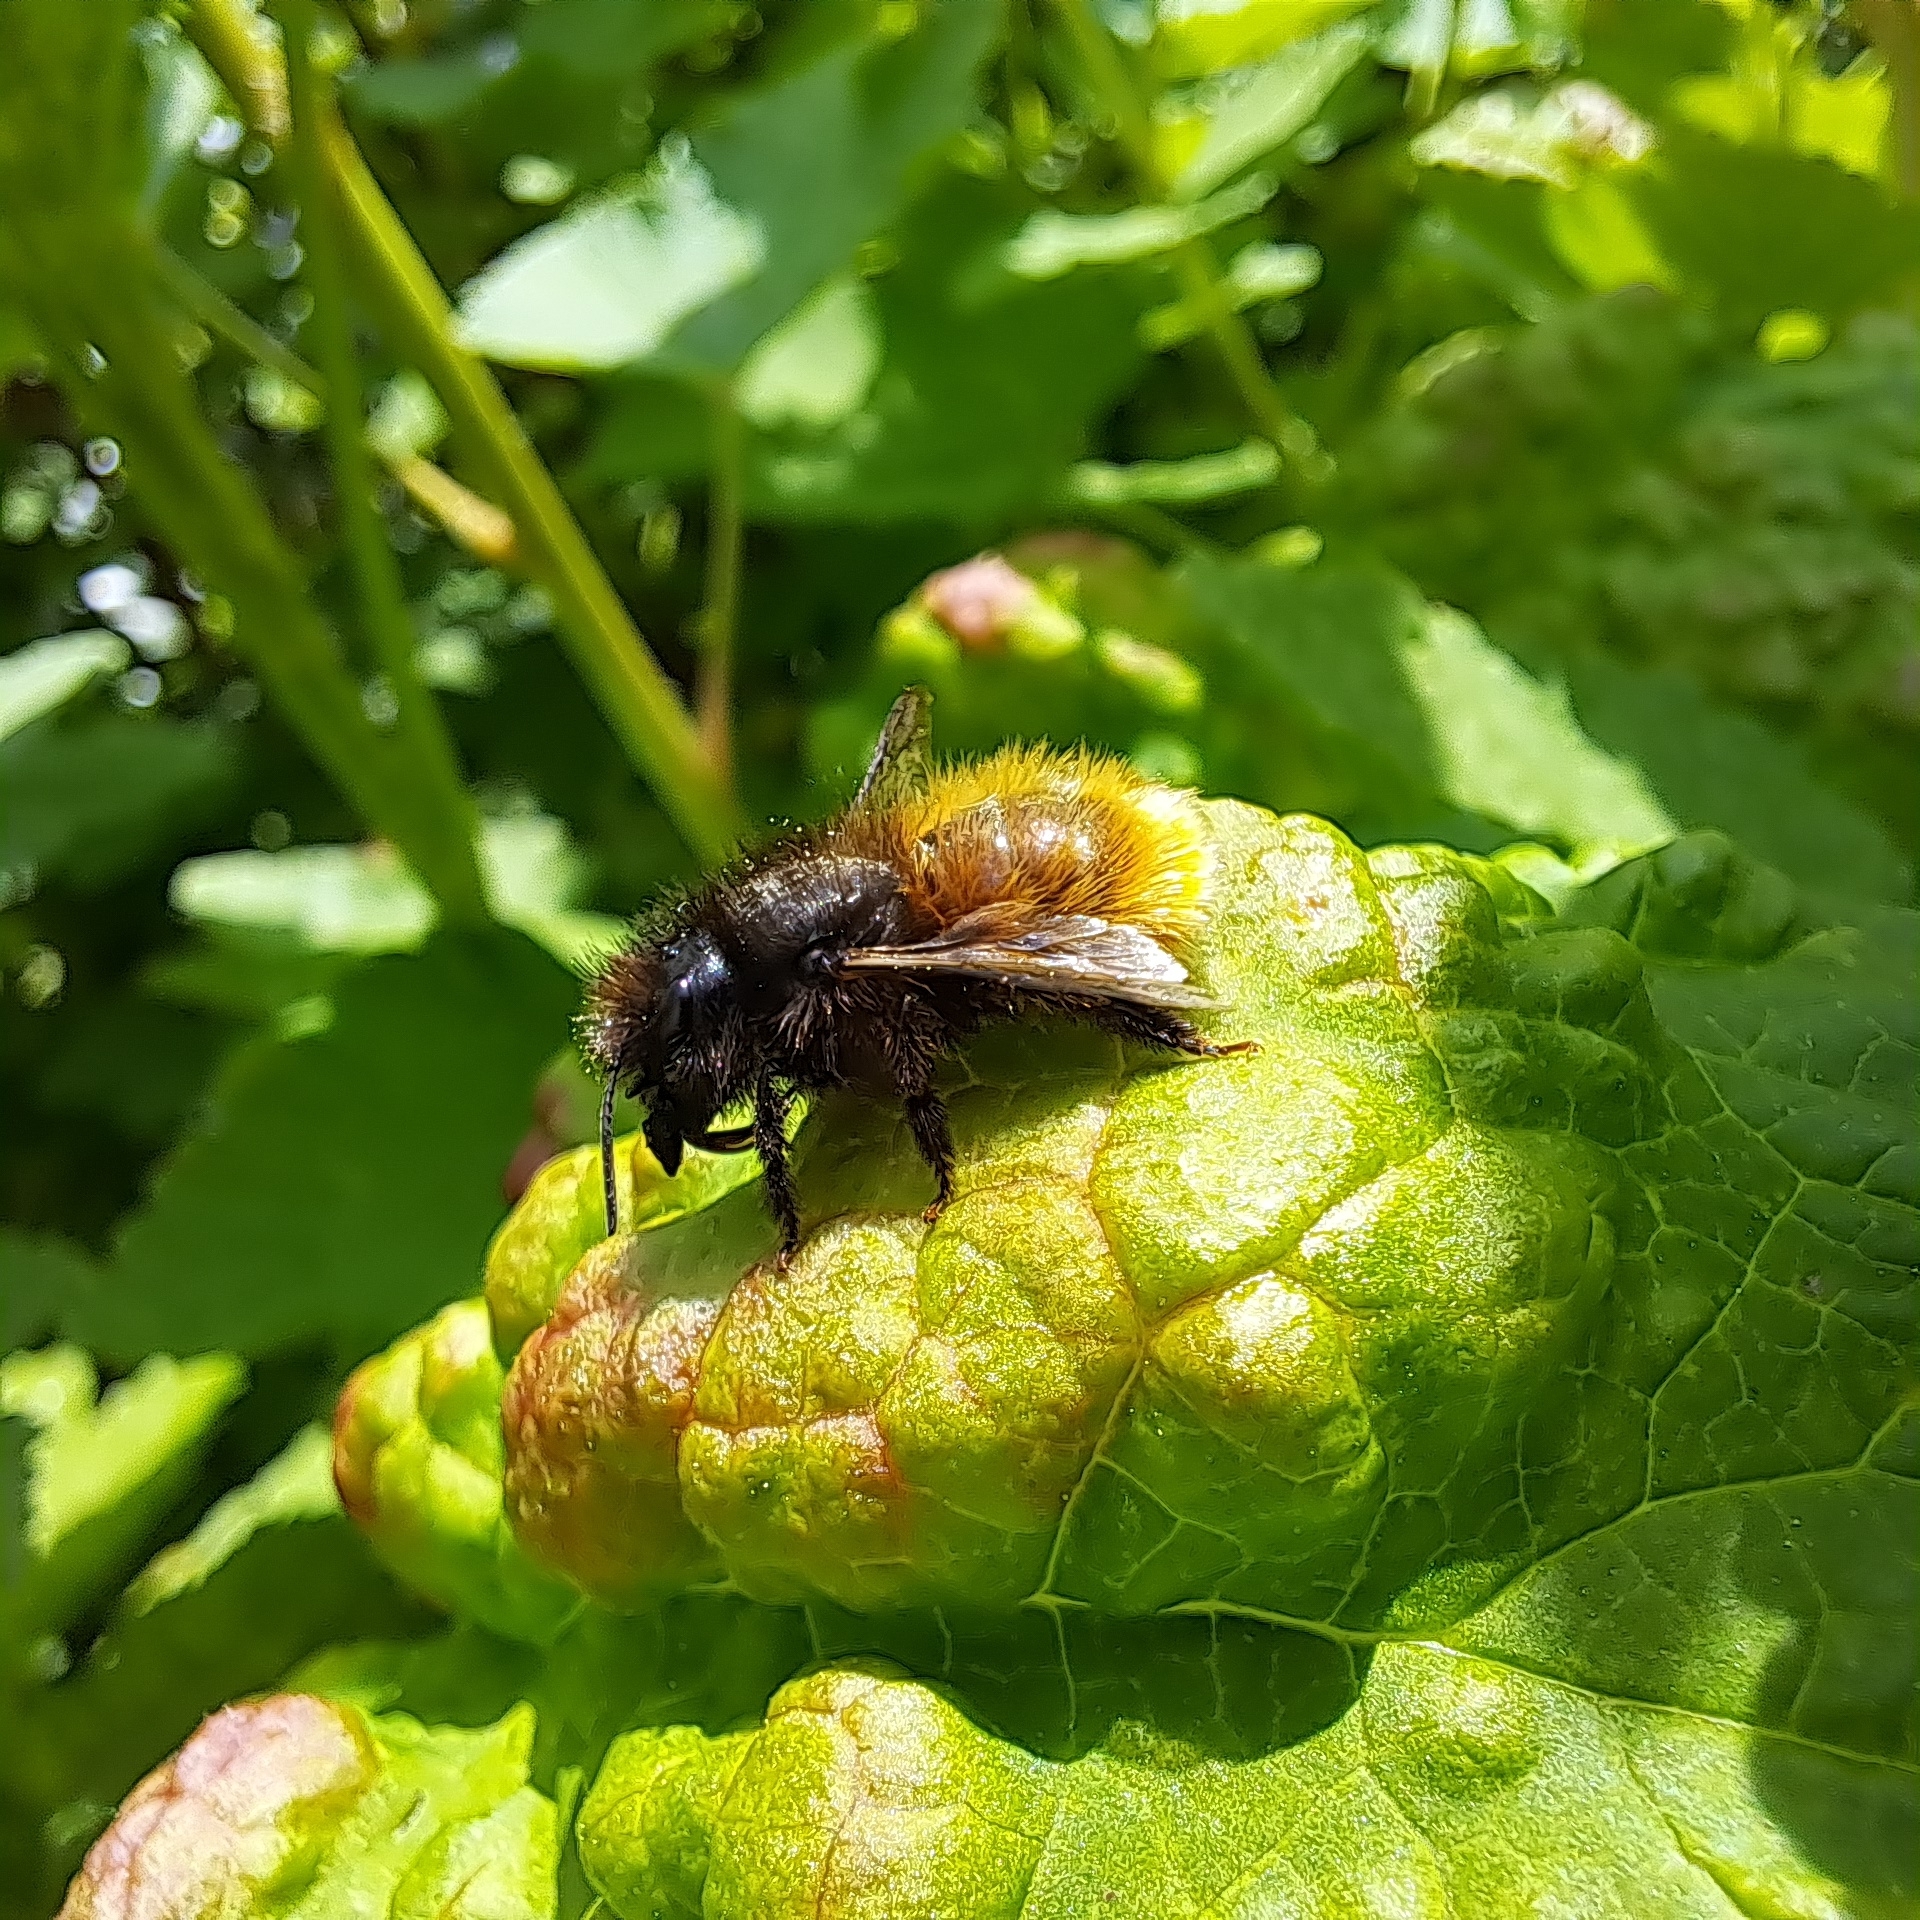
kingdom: Animalia
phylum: Arthropoda
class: Insecta
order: Hymenoptera
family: Megachilidae
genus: Osmia
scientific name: Osmia cornuta
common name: Mason bee
